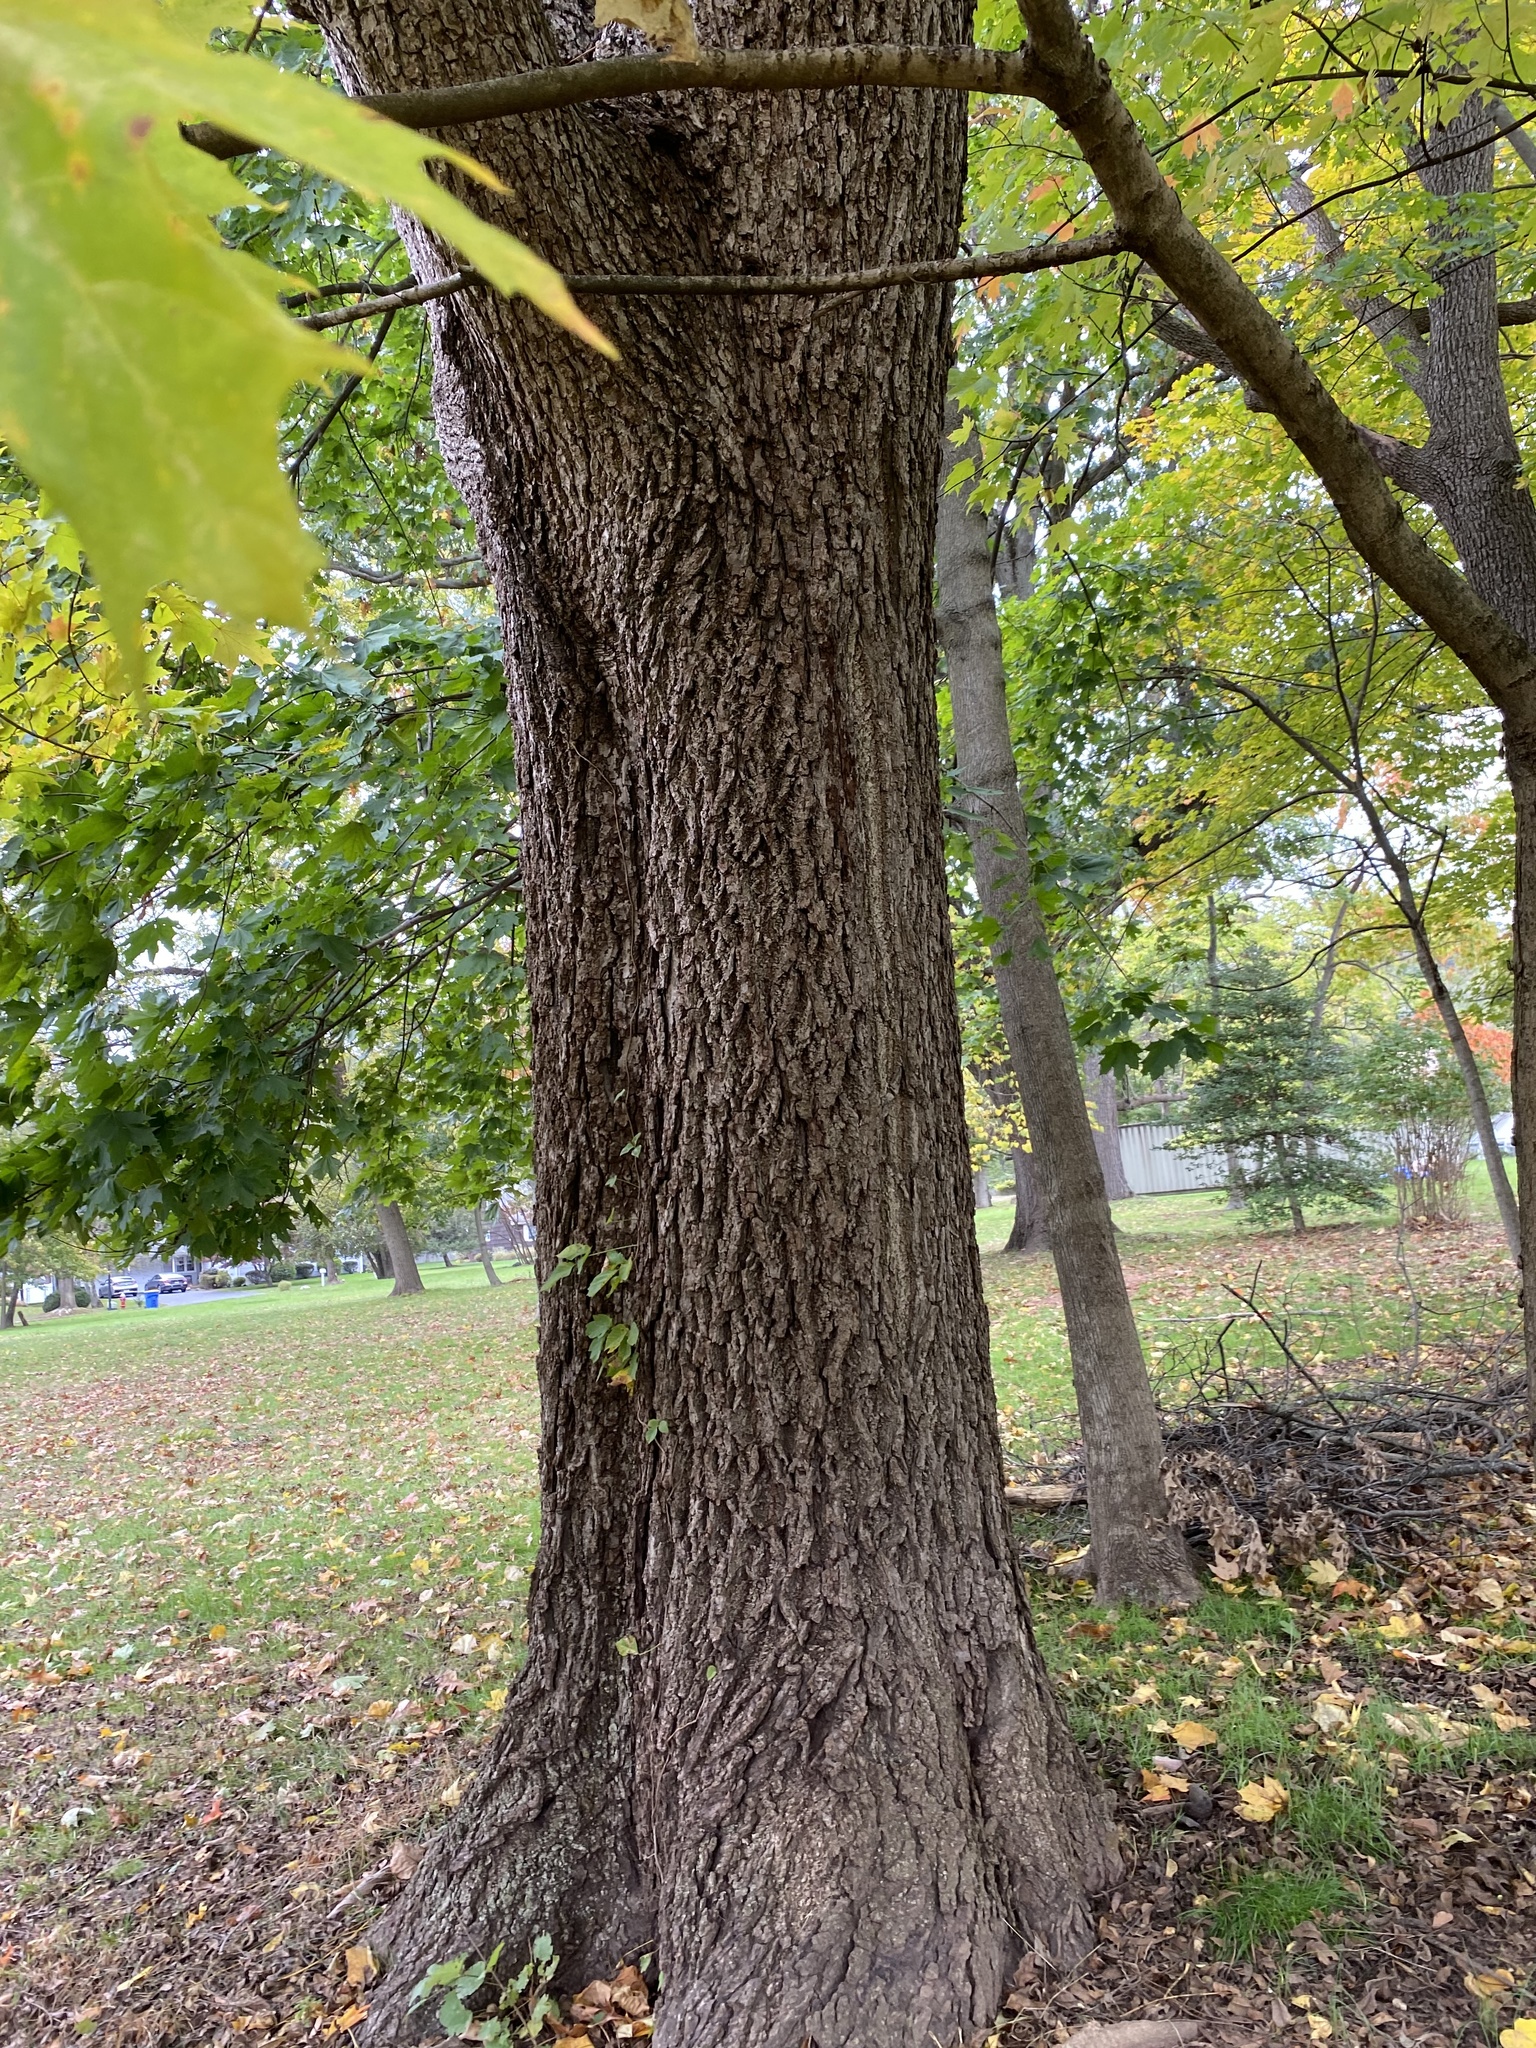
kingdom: Plantae
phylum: Tracheophyta
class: Magnoliopsida
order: Sapindales
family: Sapindaceae
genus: Acer
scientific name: Acer saccharum
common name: Sugar maple
